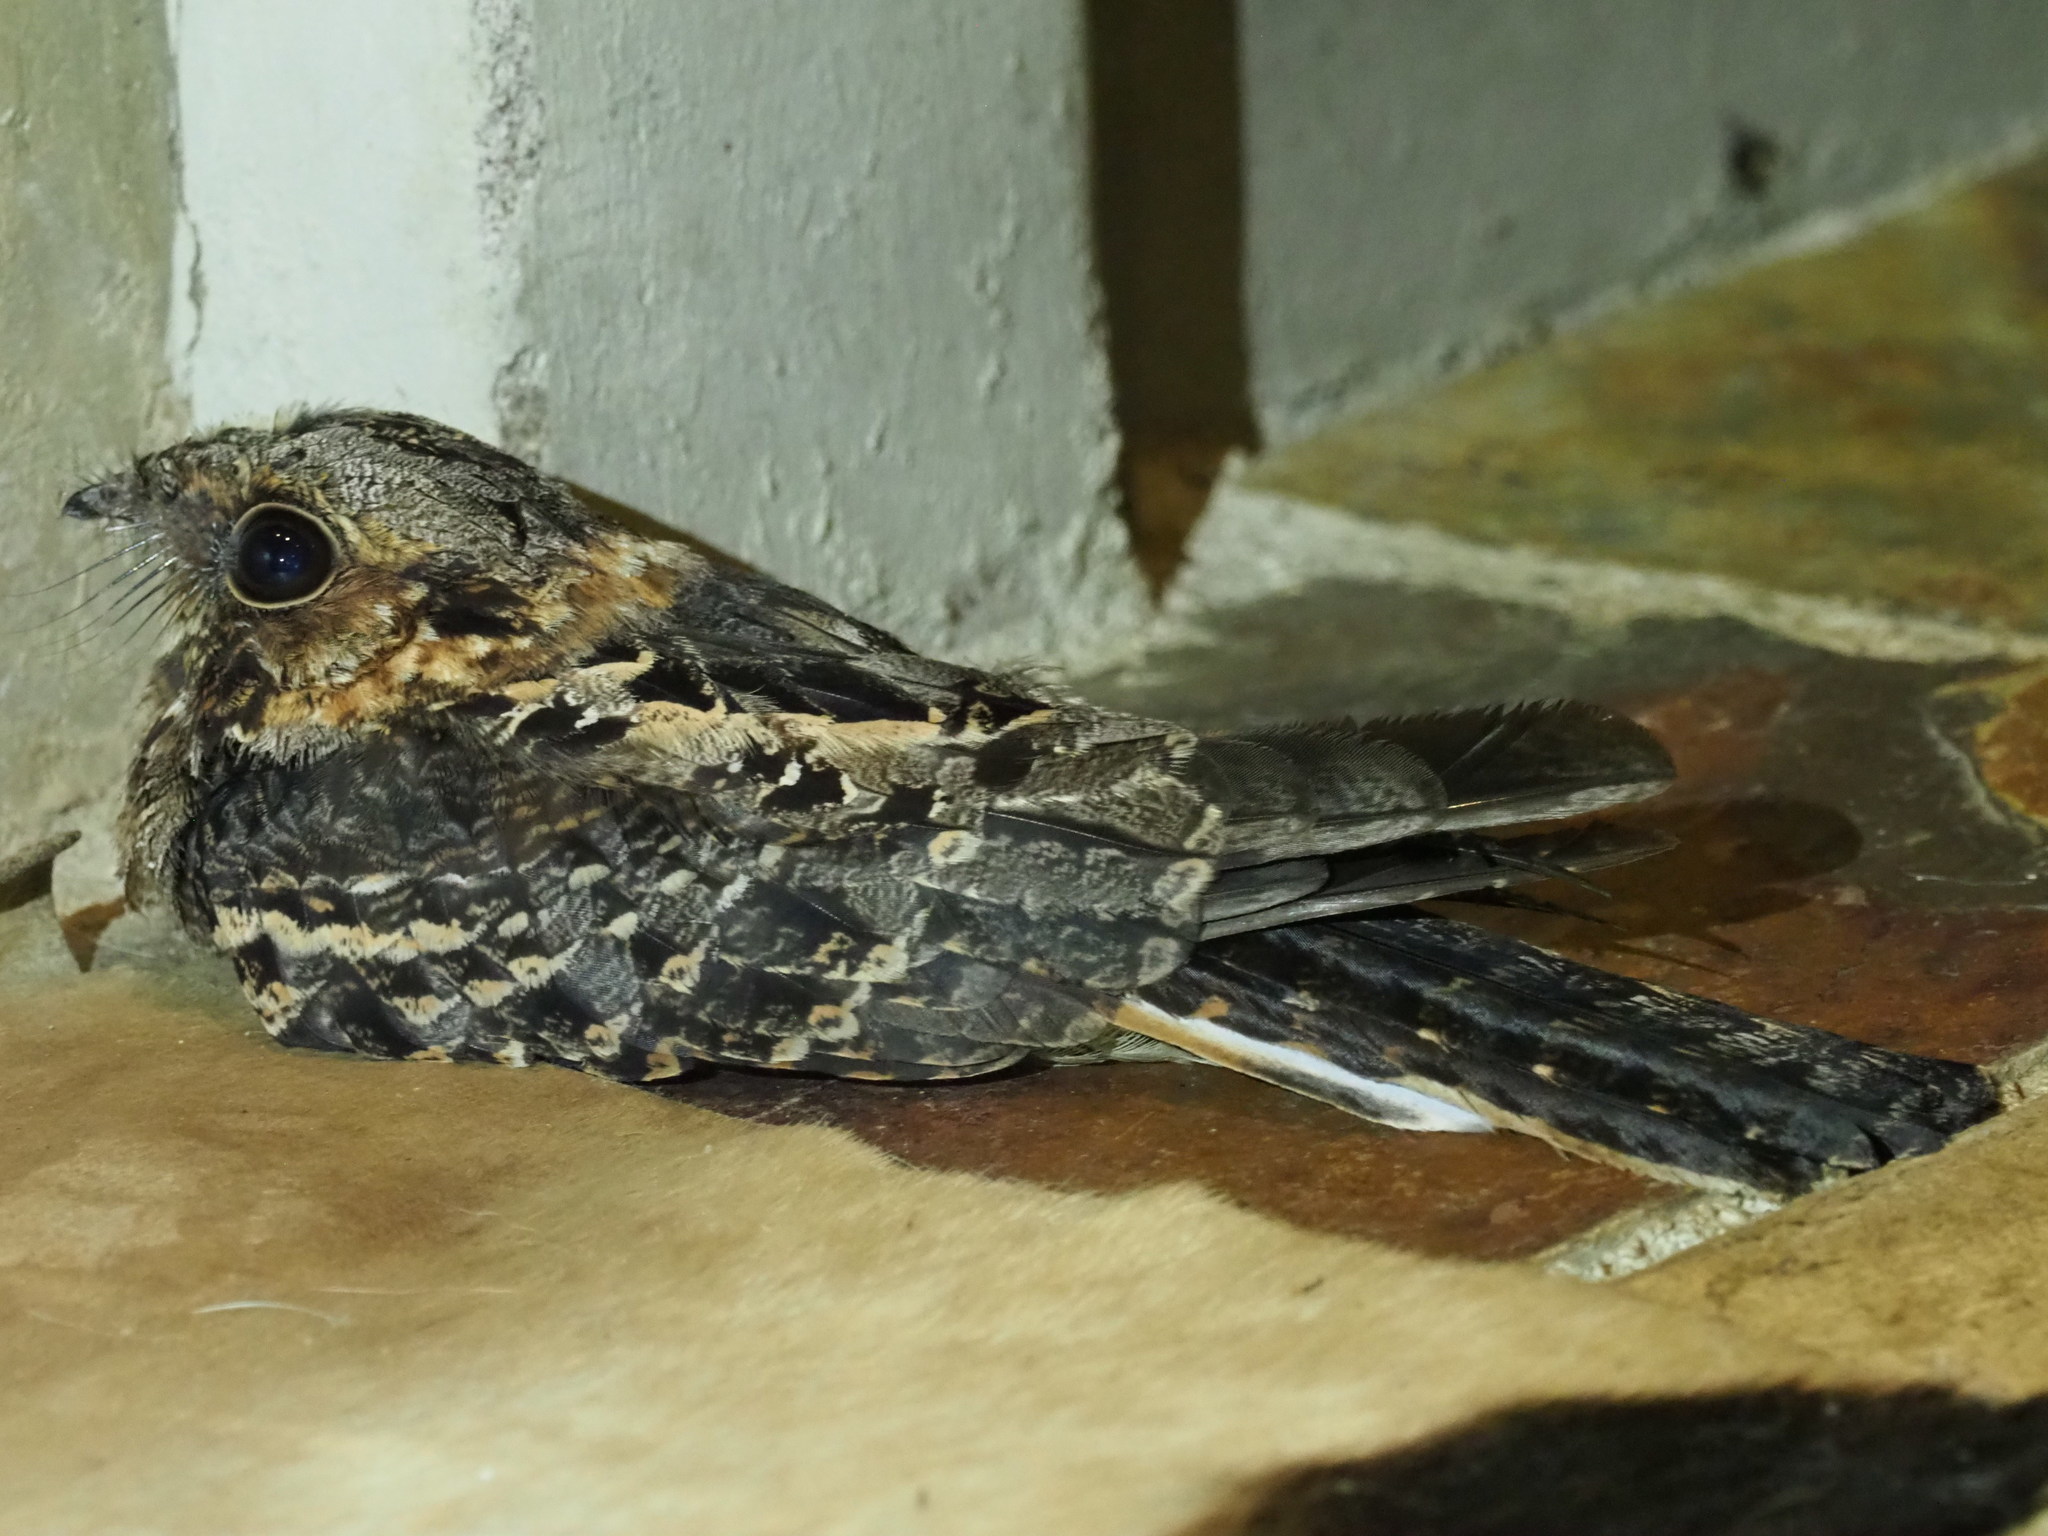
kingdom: Animalia
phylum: Chordata
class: Aves
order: Caprimulgiformes
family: Caprimulgidae
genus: Caprimulgus
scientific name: Caprimulgus pectoralis
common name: Fiery-necked nightjar
